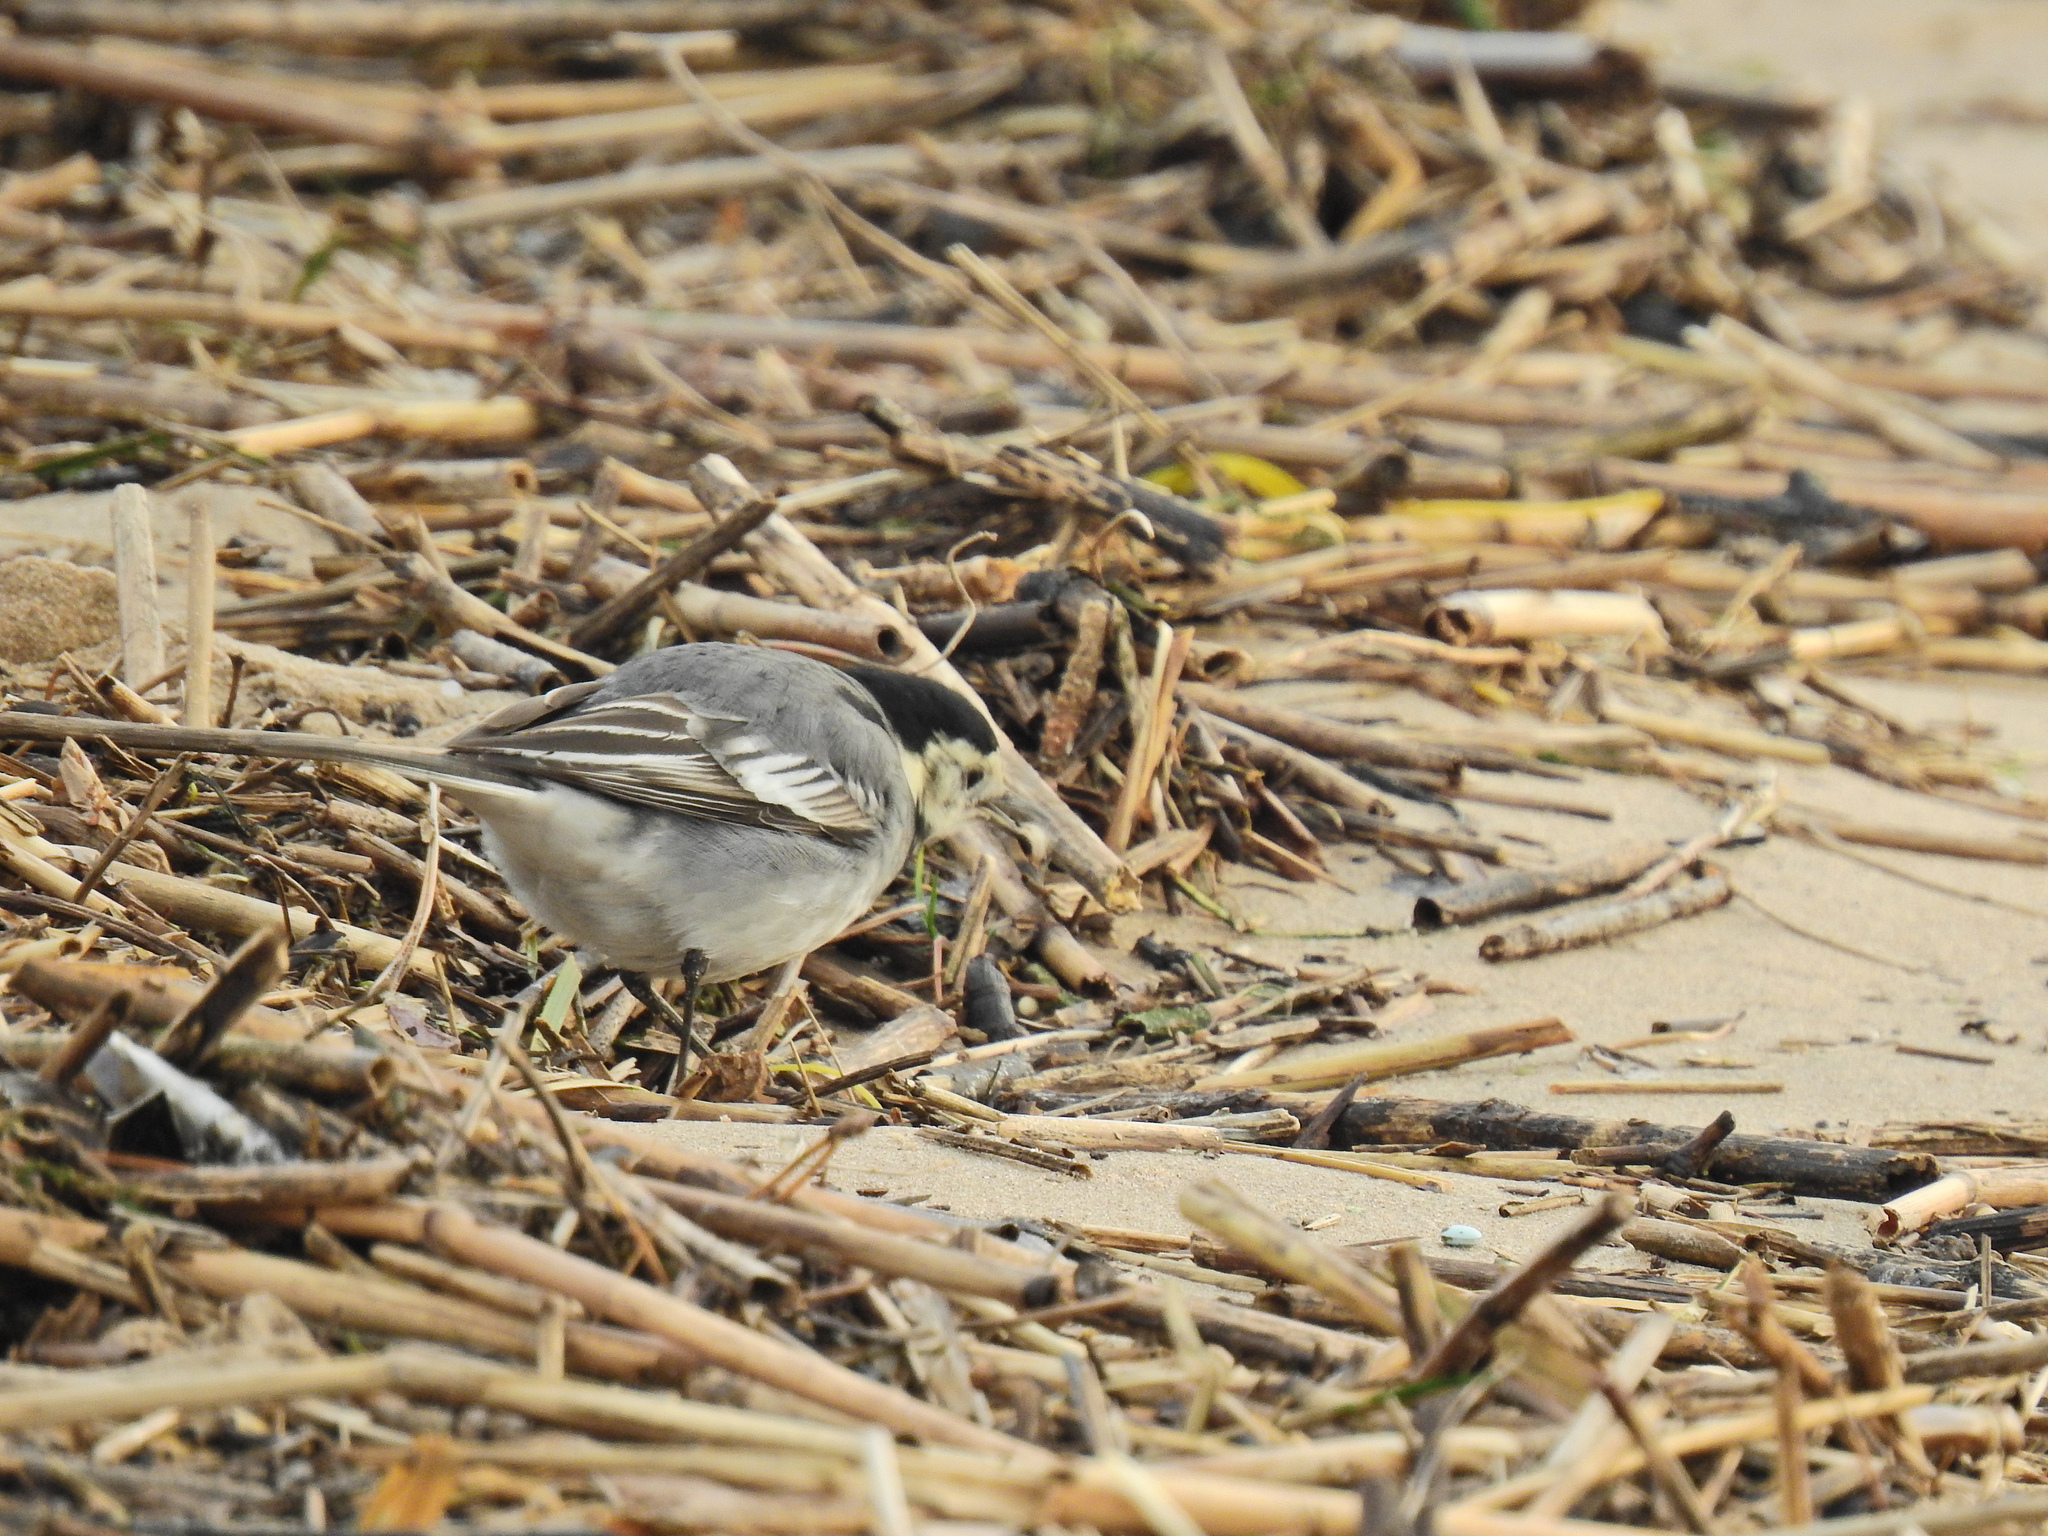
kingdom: Animalia
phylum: Chordata
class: Aves
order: Passeriformes
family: Motacillidae
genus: Motacilla
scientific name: Motacilla alba
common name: White wagtail
